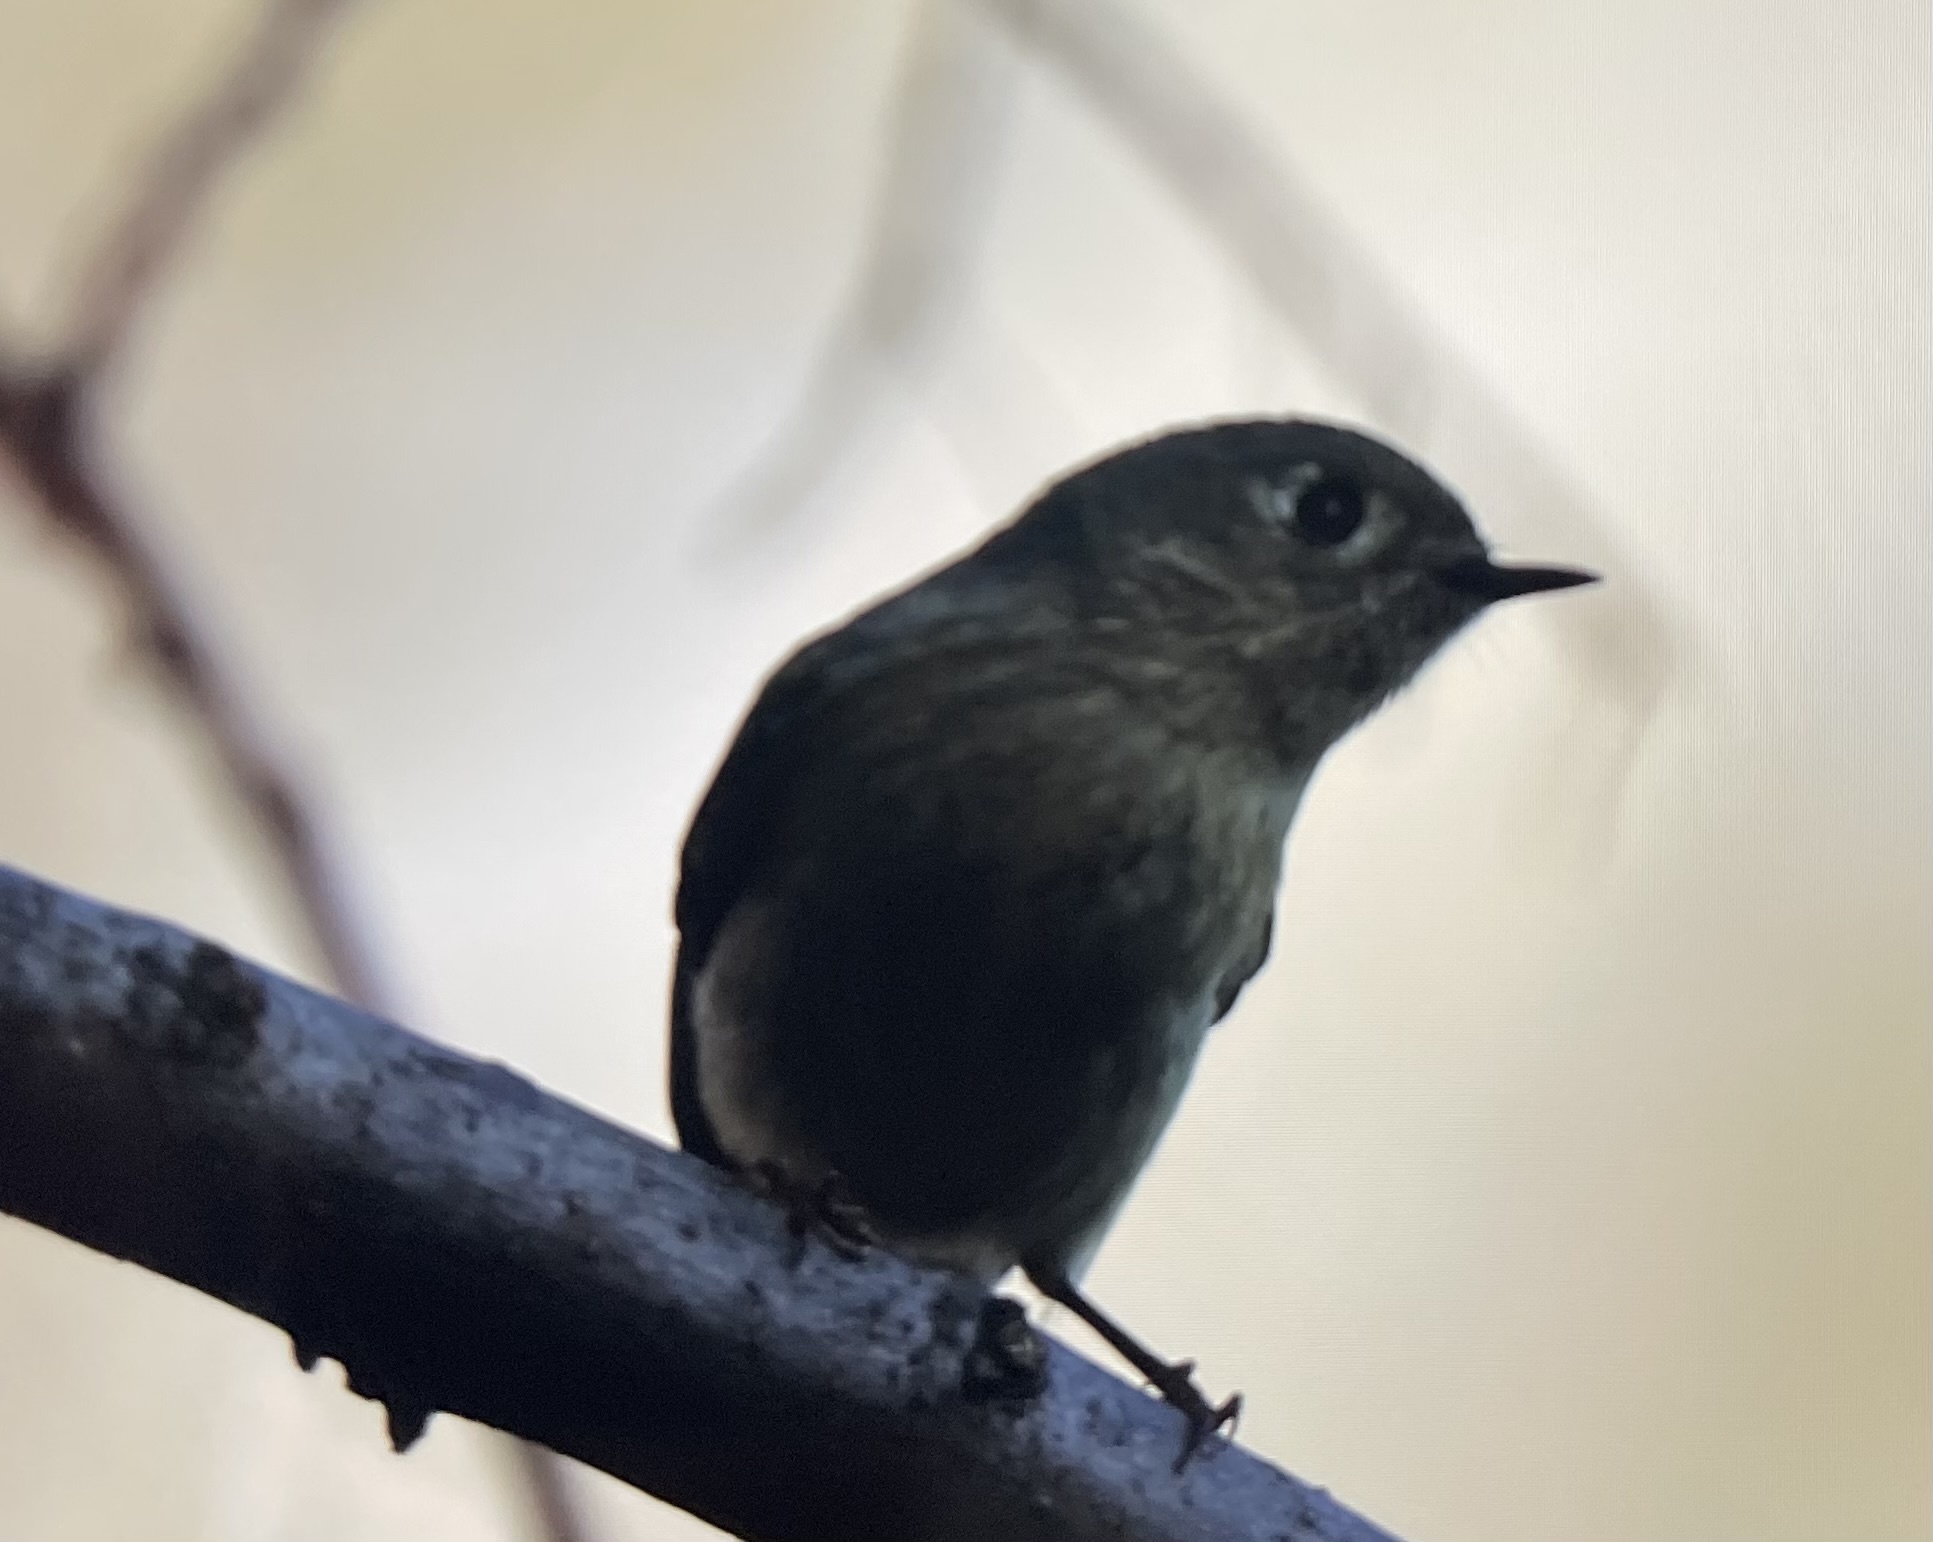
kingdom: Animalia
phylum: Chordata
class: Aves
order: Passeriformes
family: Regulidae
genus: Regulus
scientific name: Regulus calendula
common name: Ruby-crowned kinglet
